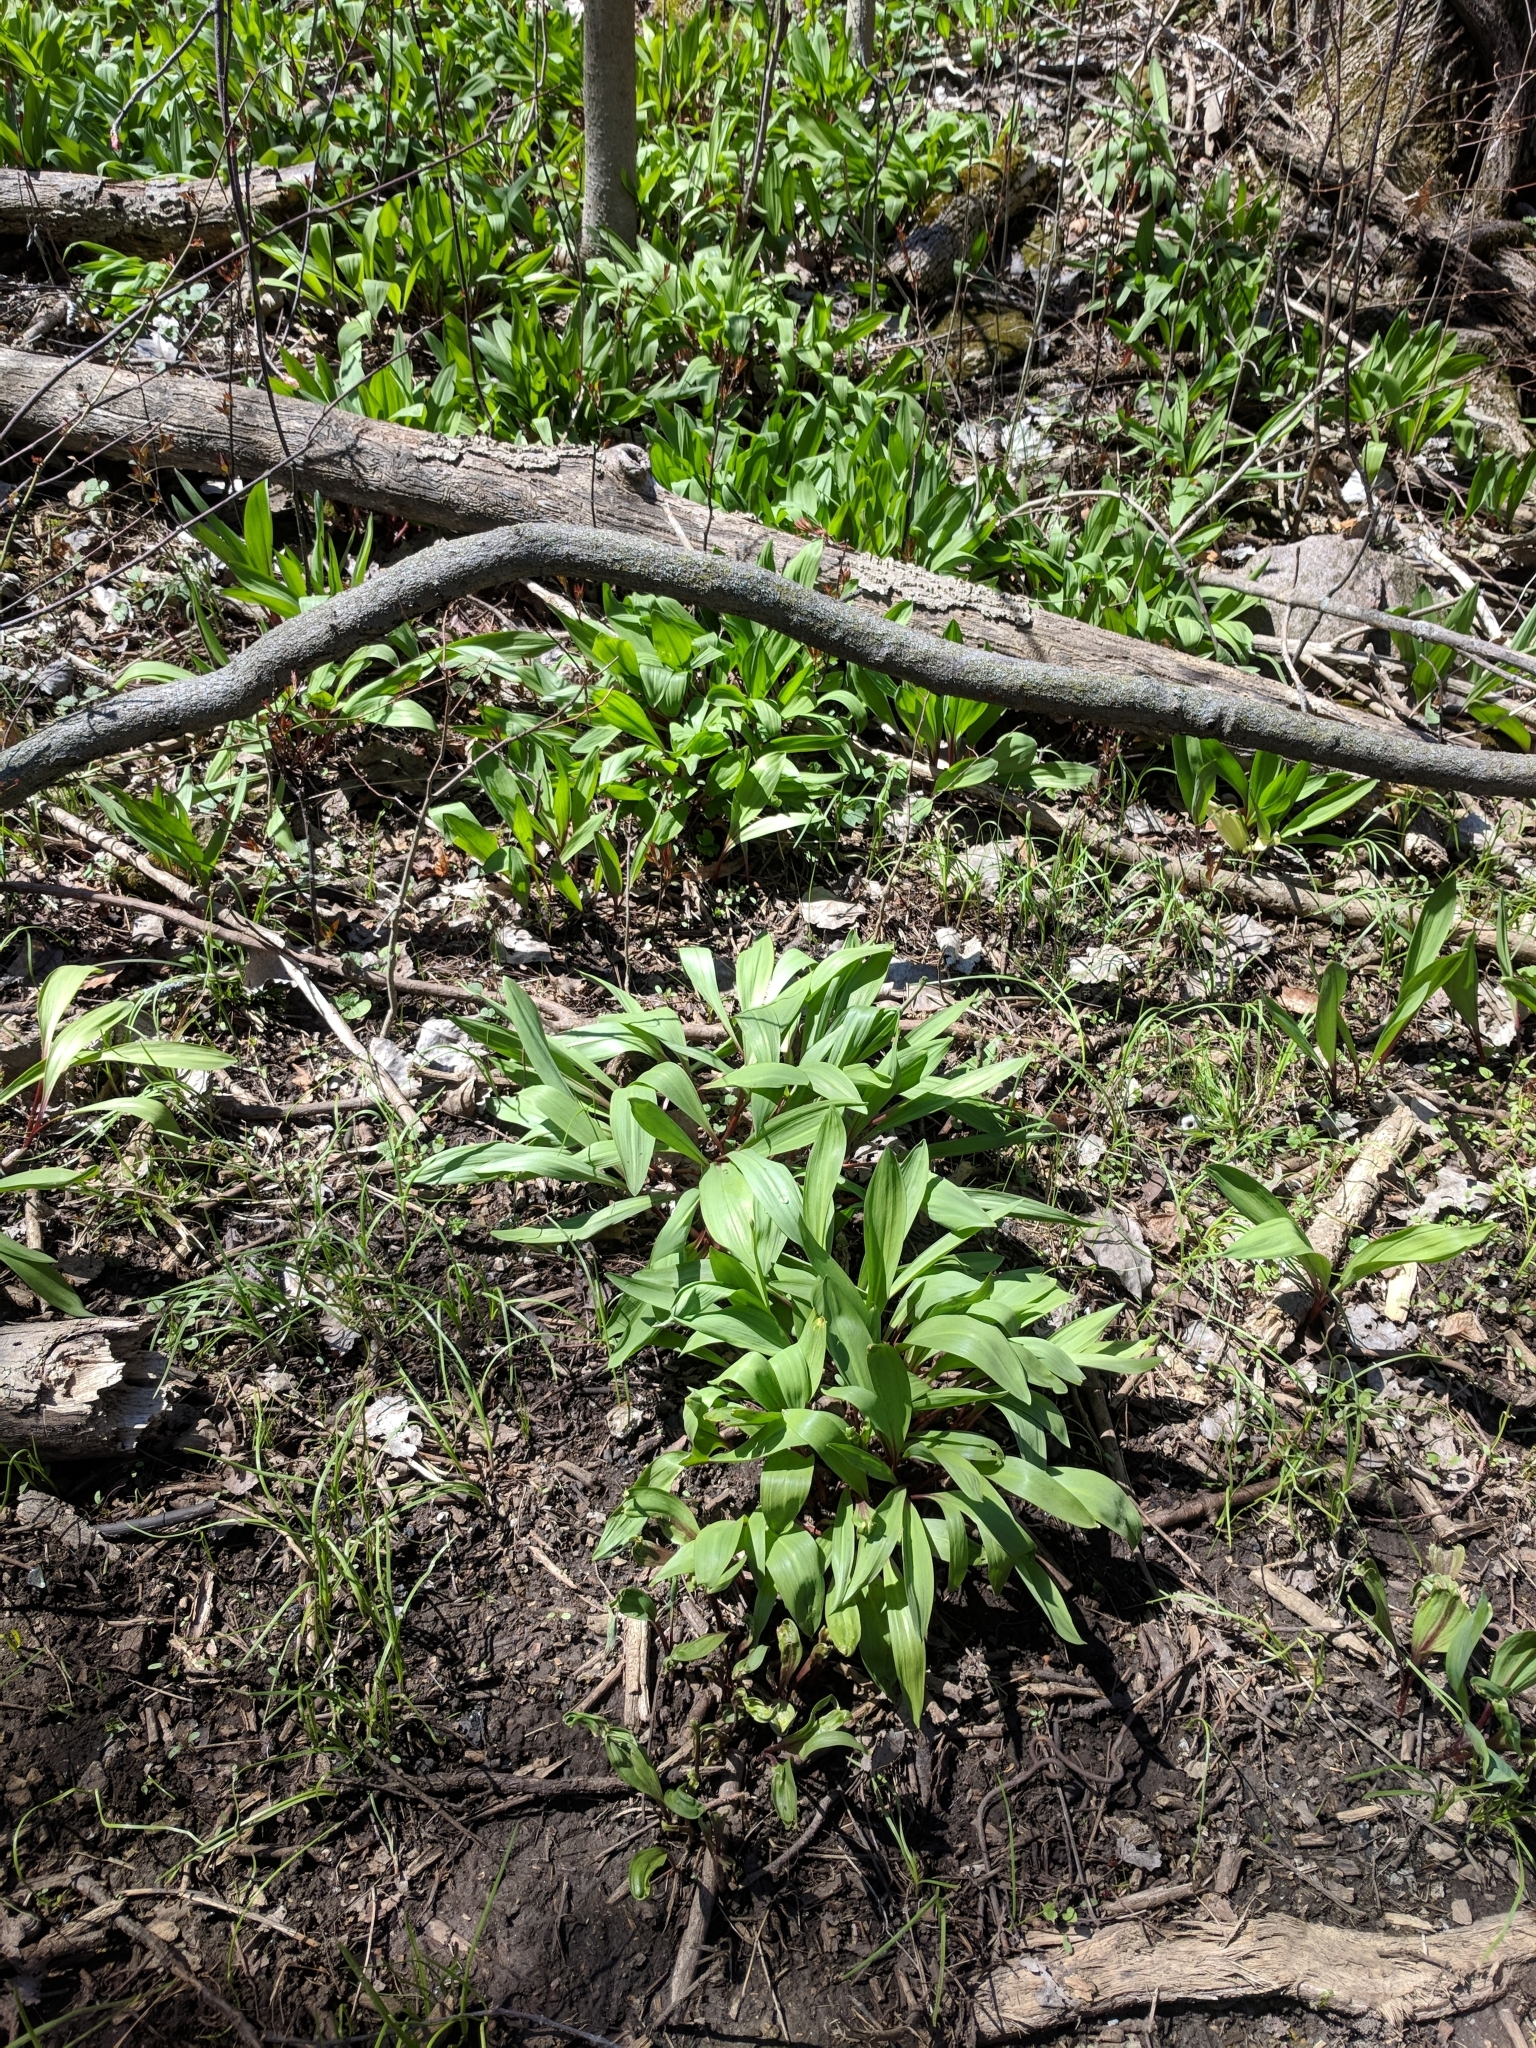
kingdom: Plantae
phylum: Tracheophyta
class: Liliopsida
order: Asparagales
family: Amaryllidaceae
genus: Allium
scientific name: Allium tricoccum
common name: Ramp
